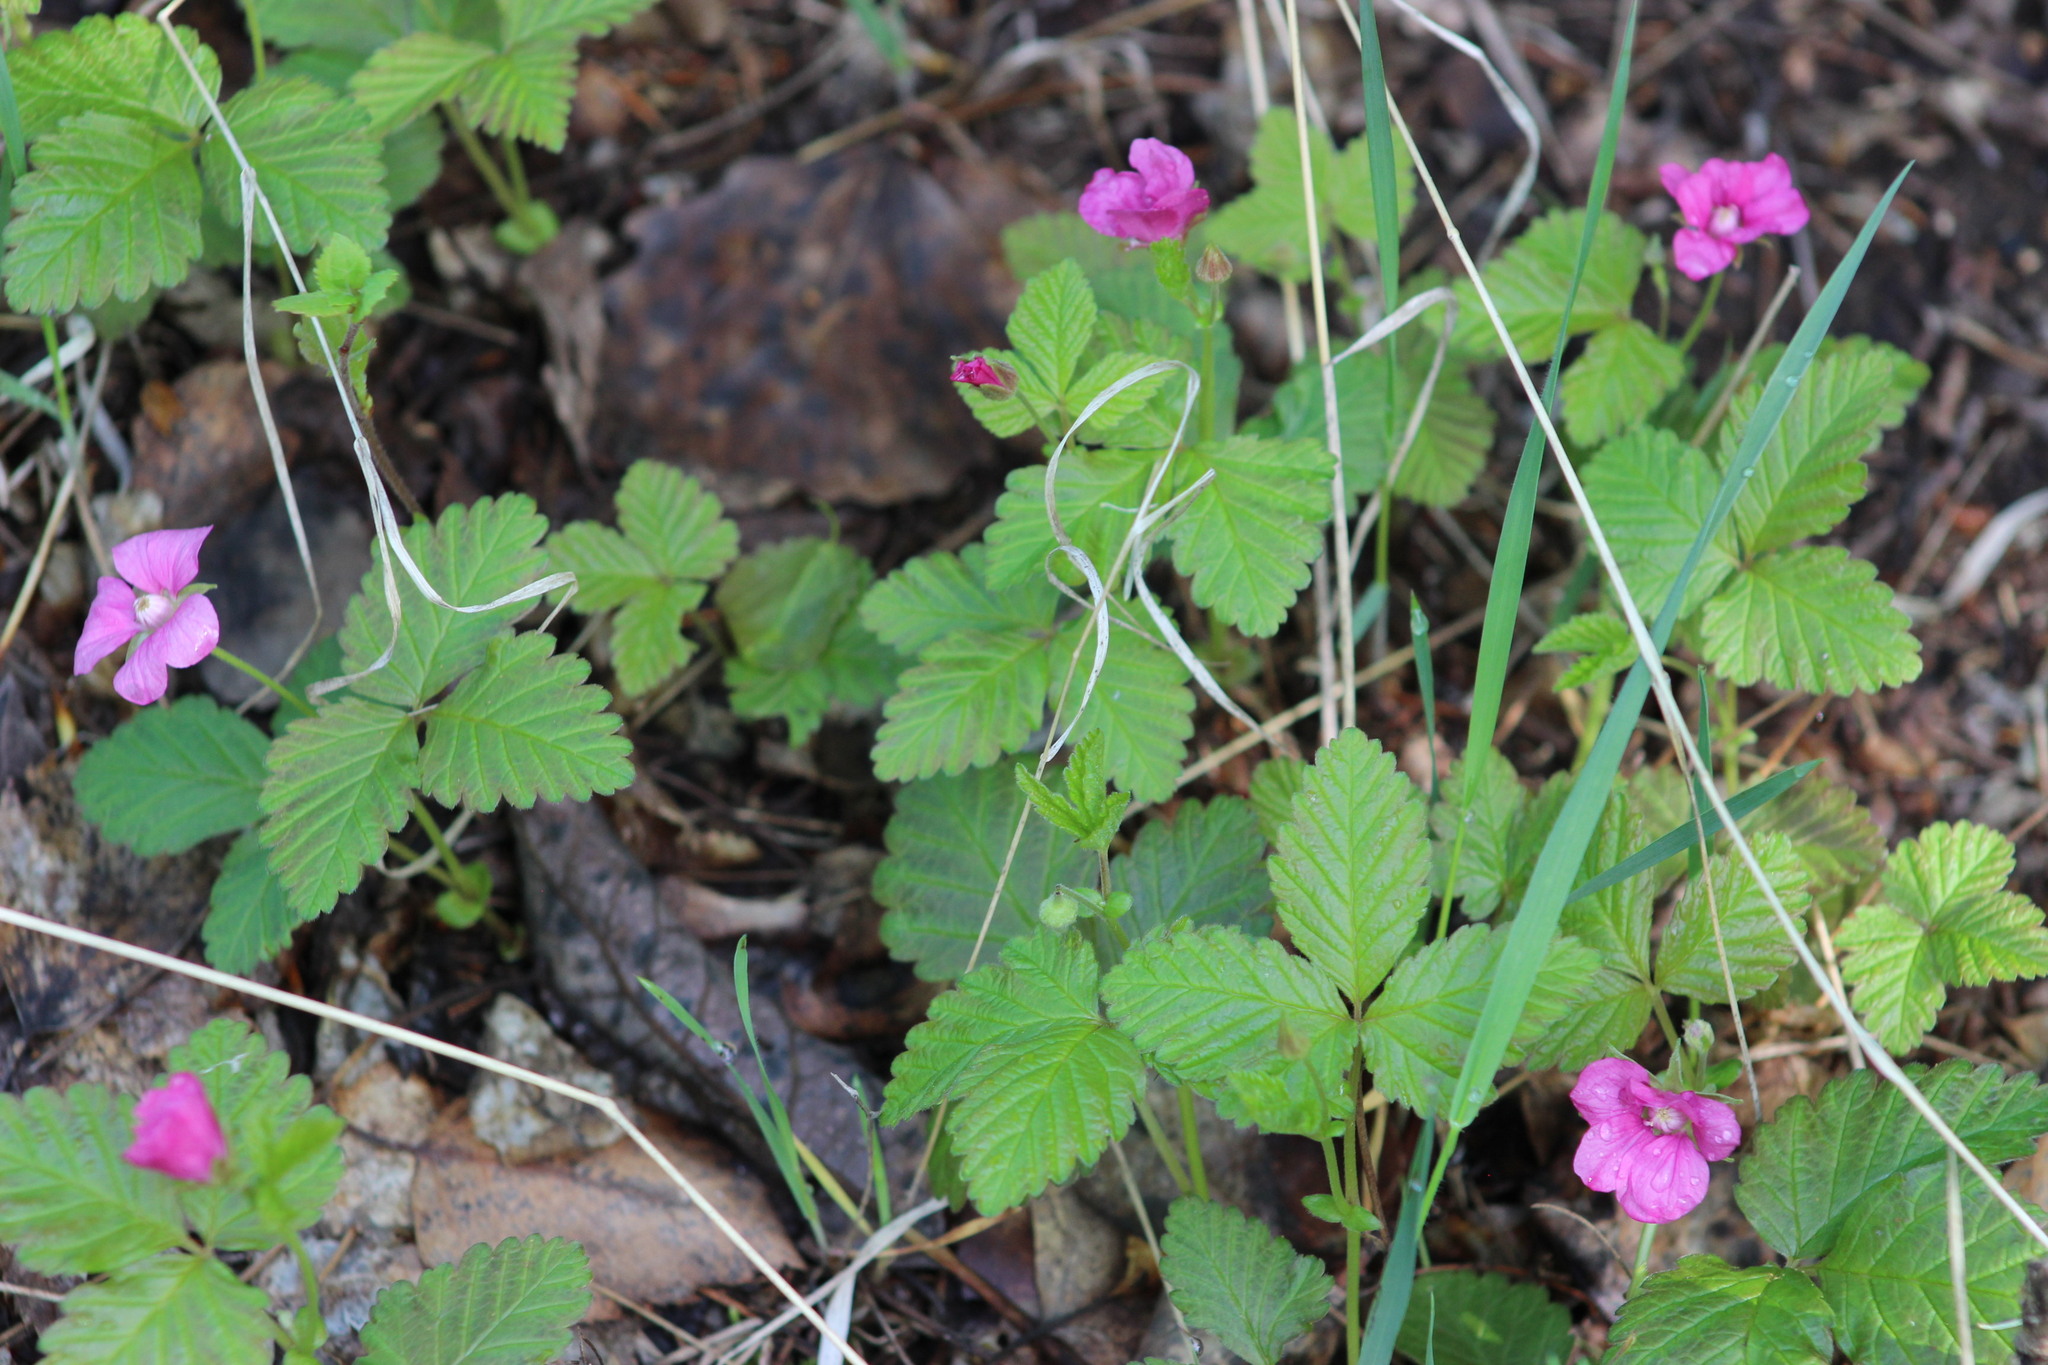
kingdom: Plantae
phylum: Tracheophyta
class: Magnoliopsida
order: Rosales
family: Rosaceae
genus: Rubus
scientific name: Rubus arcticus
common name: Arctic bramble
